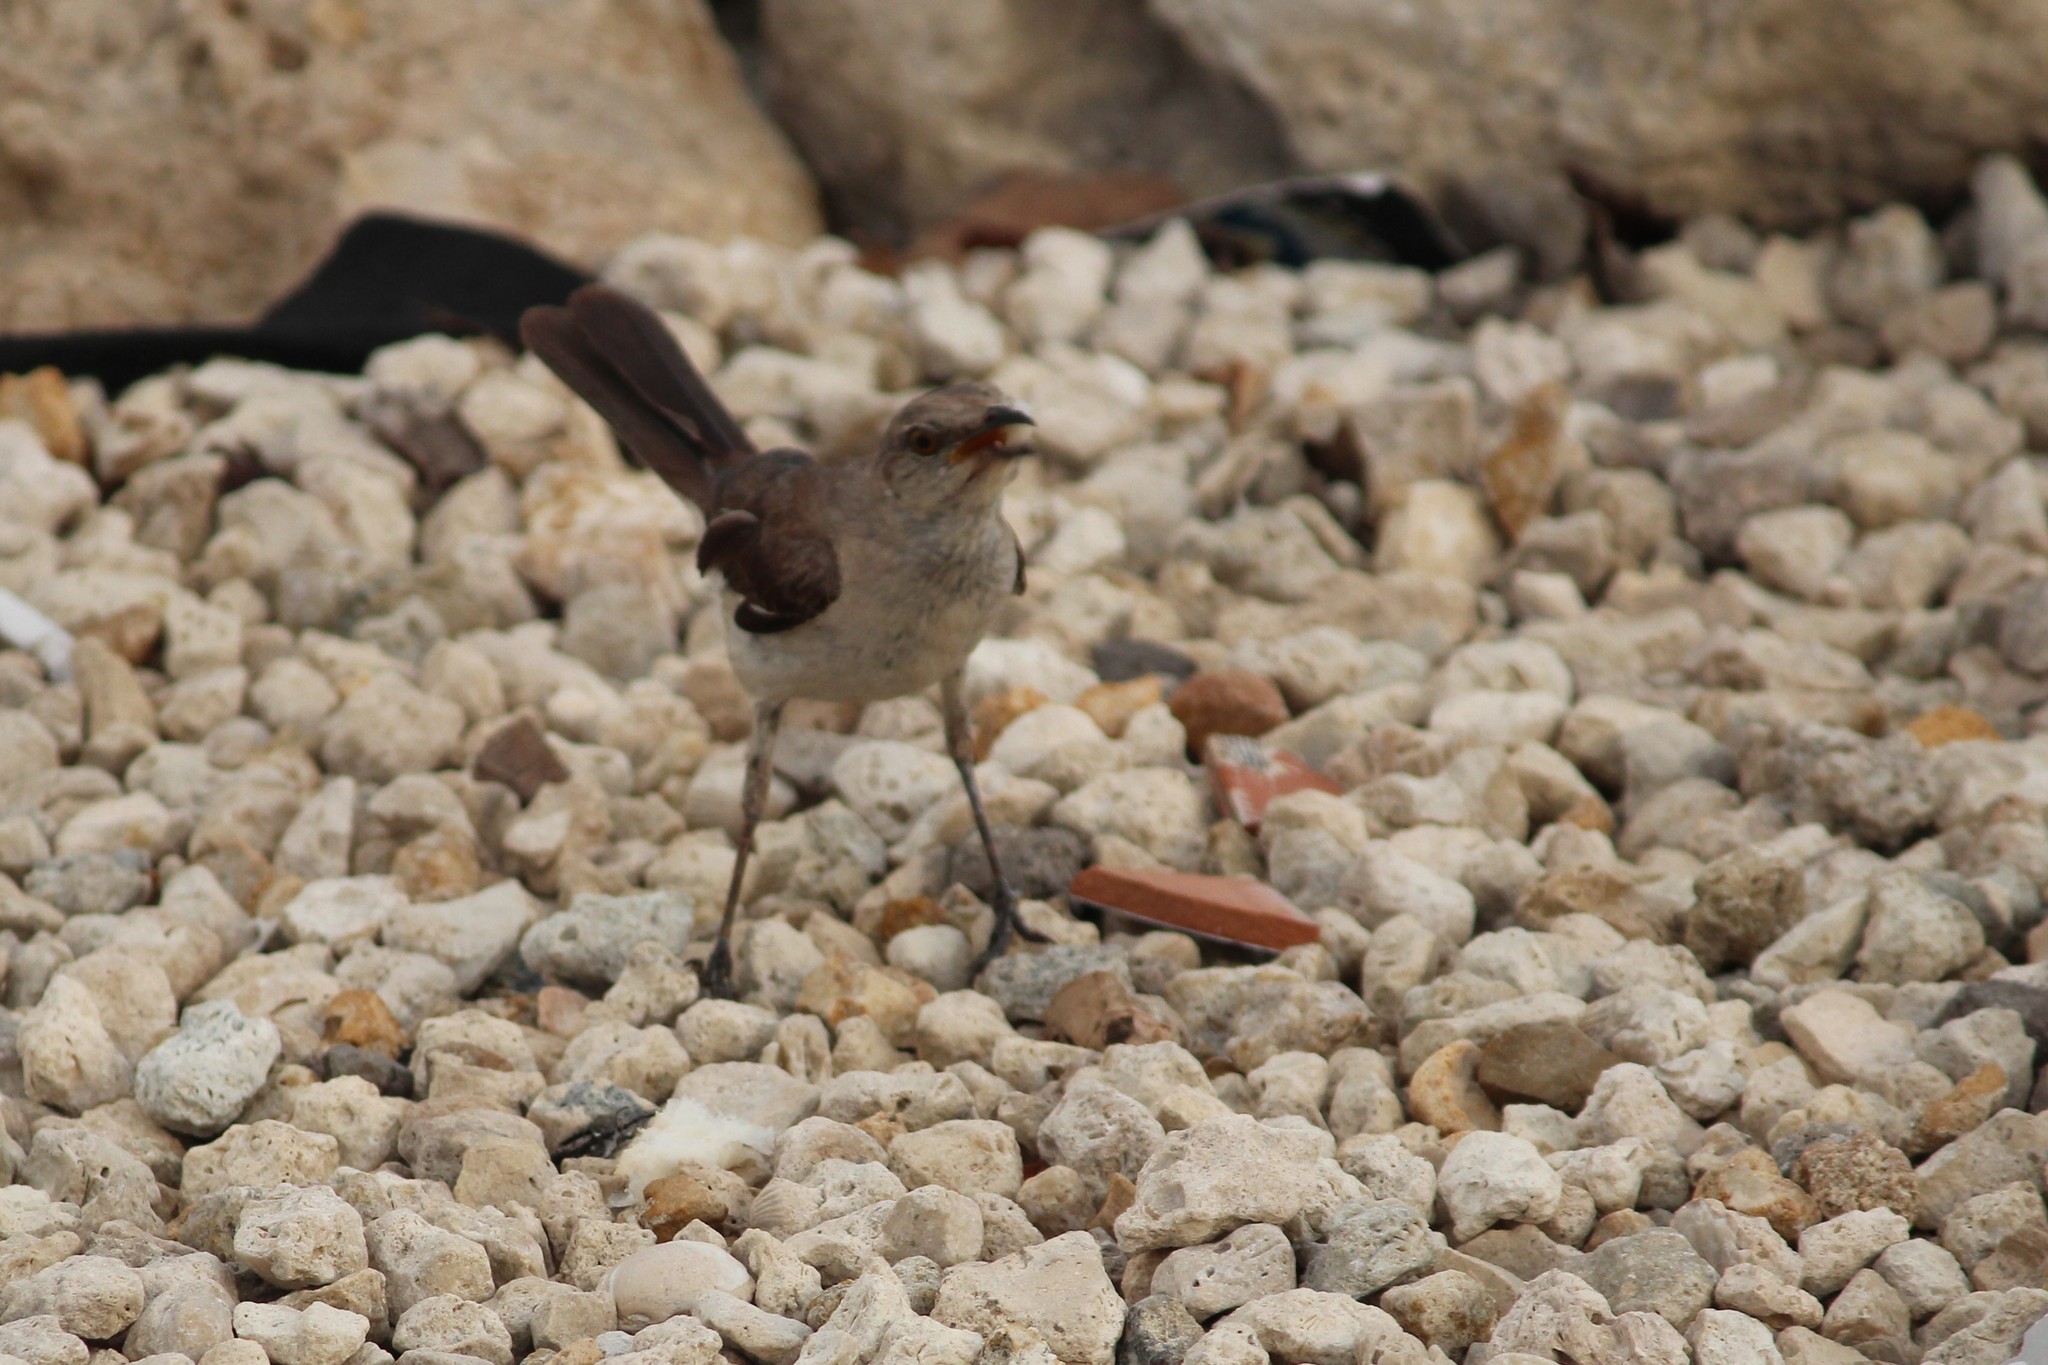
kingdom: Animalia
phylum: Chordata
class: Aves
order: Passeriformes
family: Mimidae
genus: Mimus
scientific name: Mimus polyglottos
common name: Northern mockingbird
